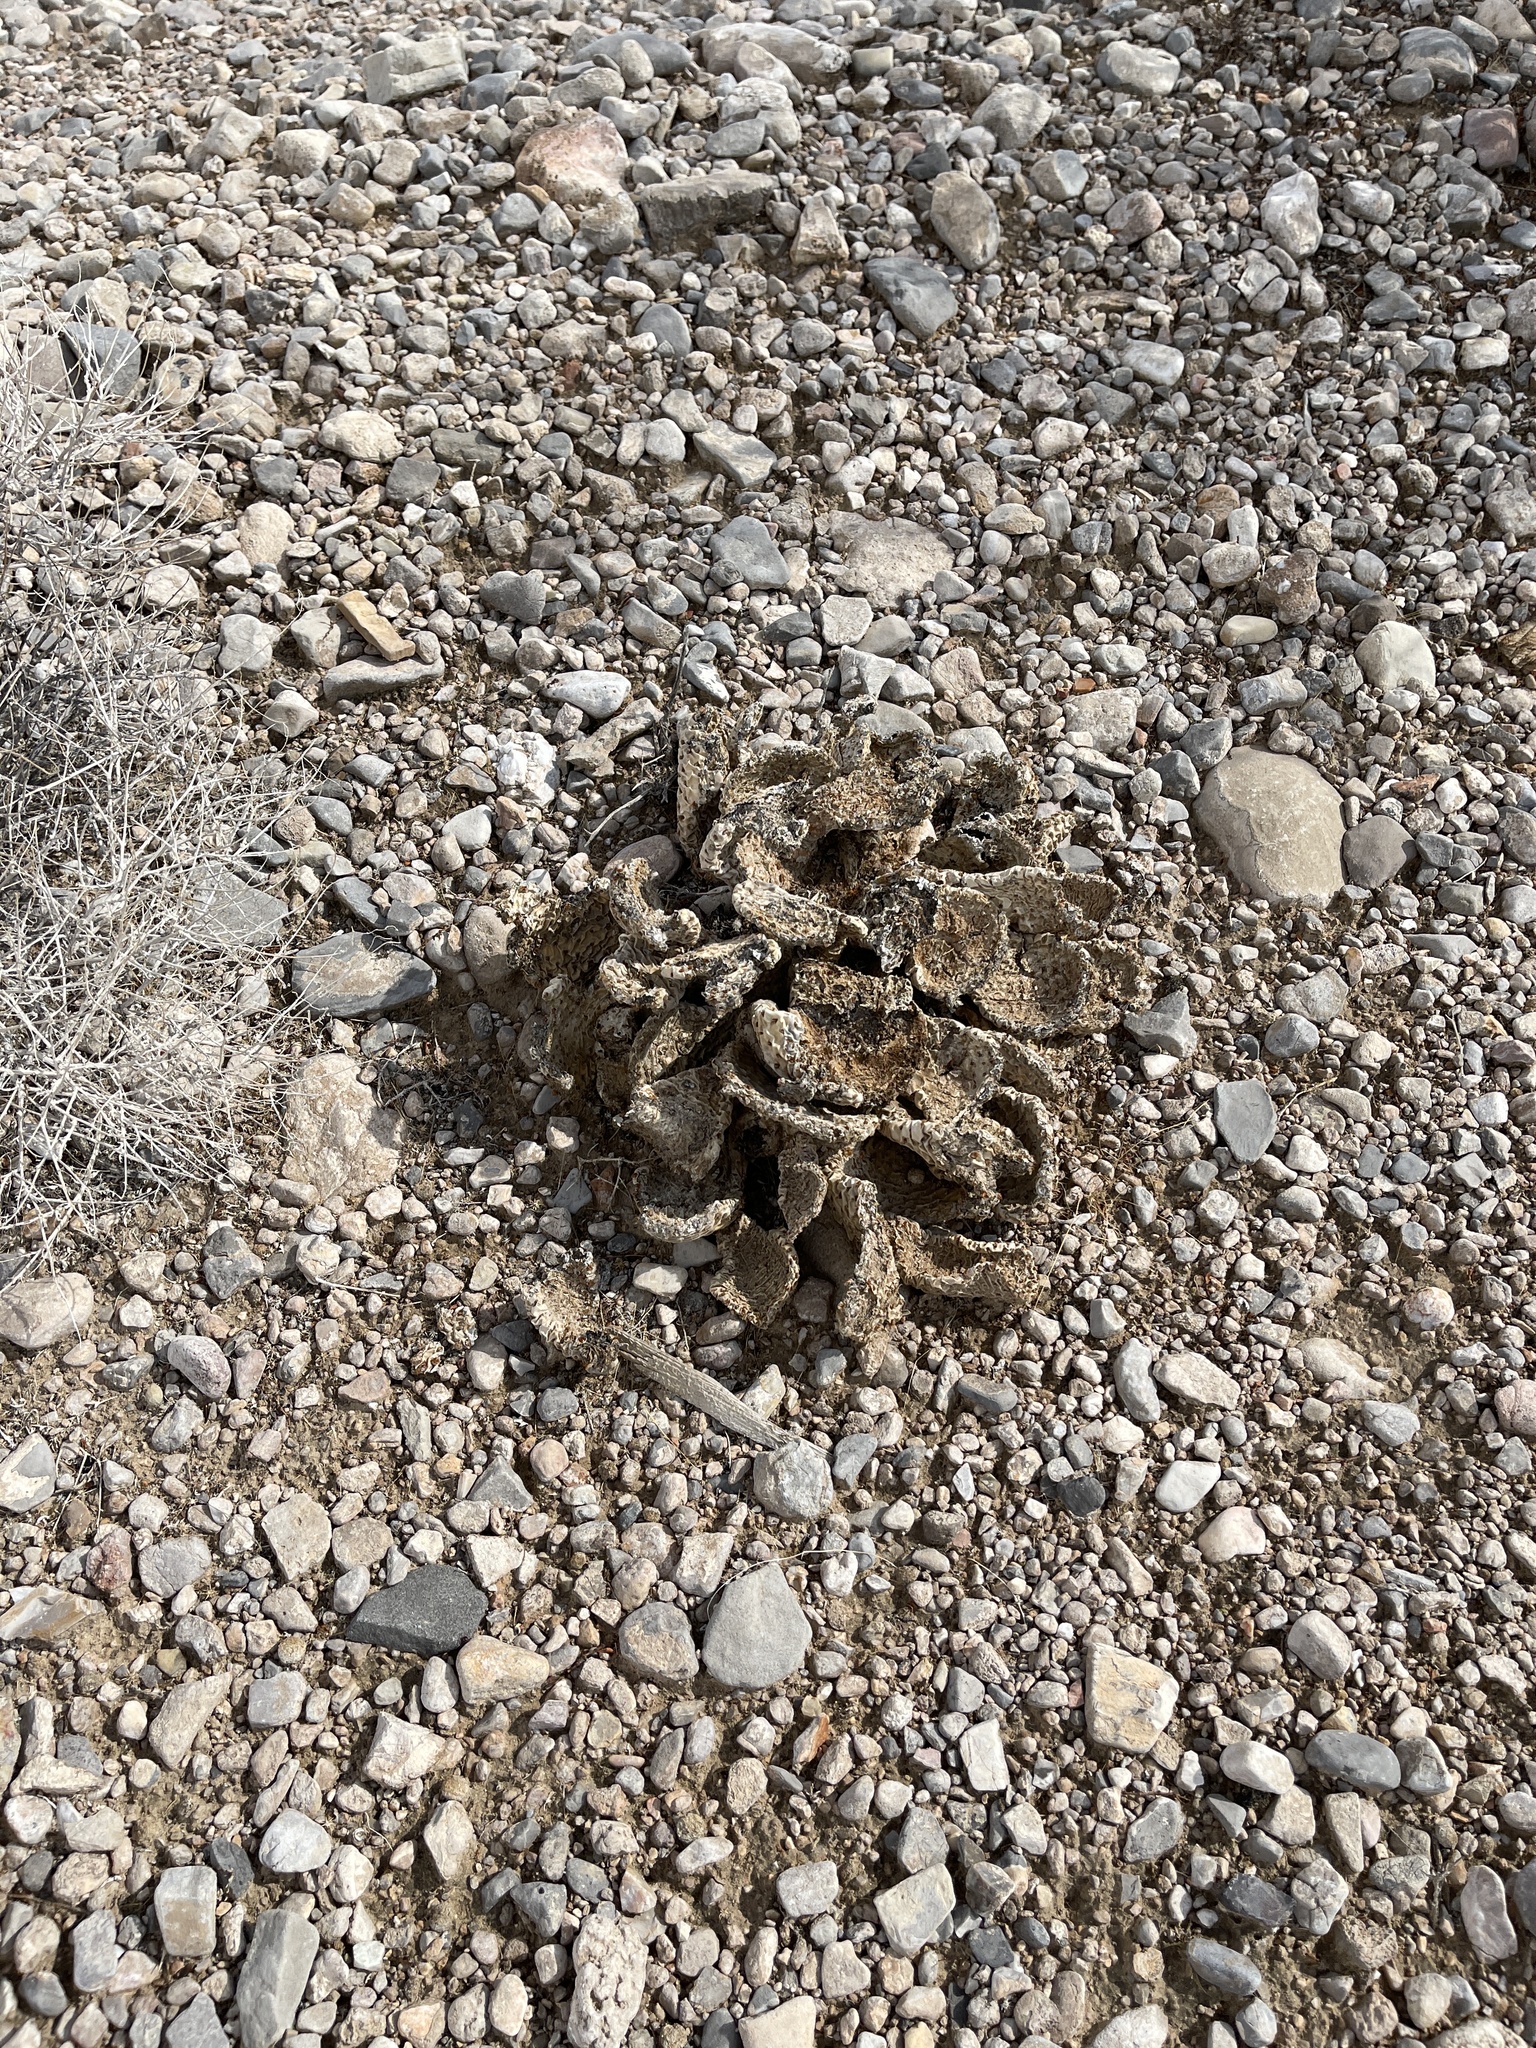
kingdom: Plantae
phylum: Tracheophyta
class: Magnoliopsida
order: Caryophyllales
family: Cactaceae
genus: Opuntia
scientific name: Opuntia basilaris
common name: Beavertail prickly-pear
